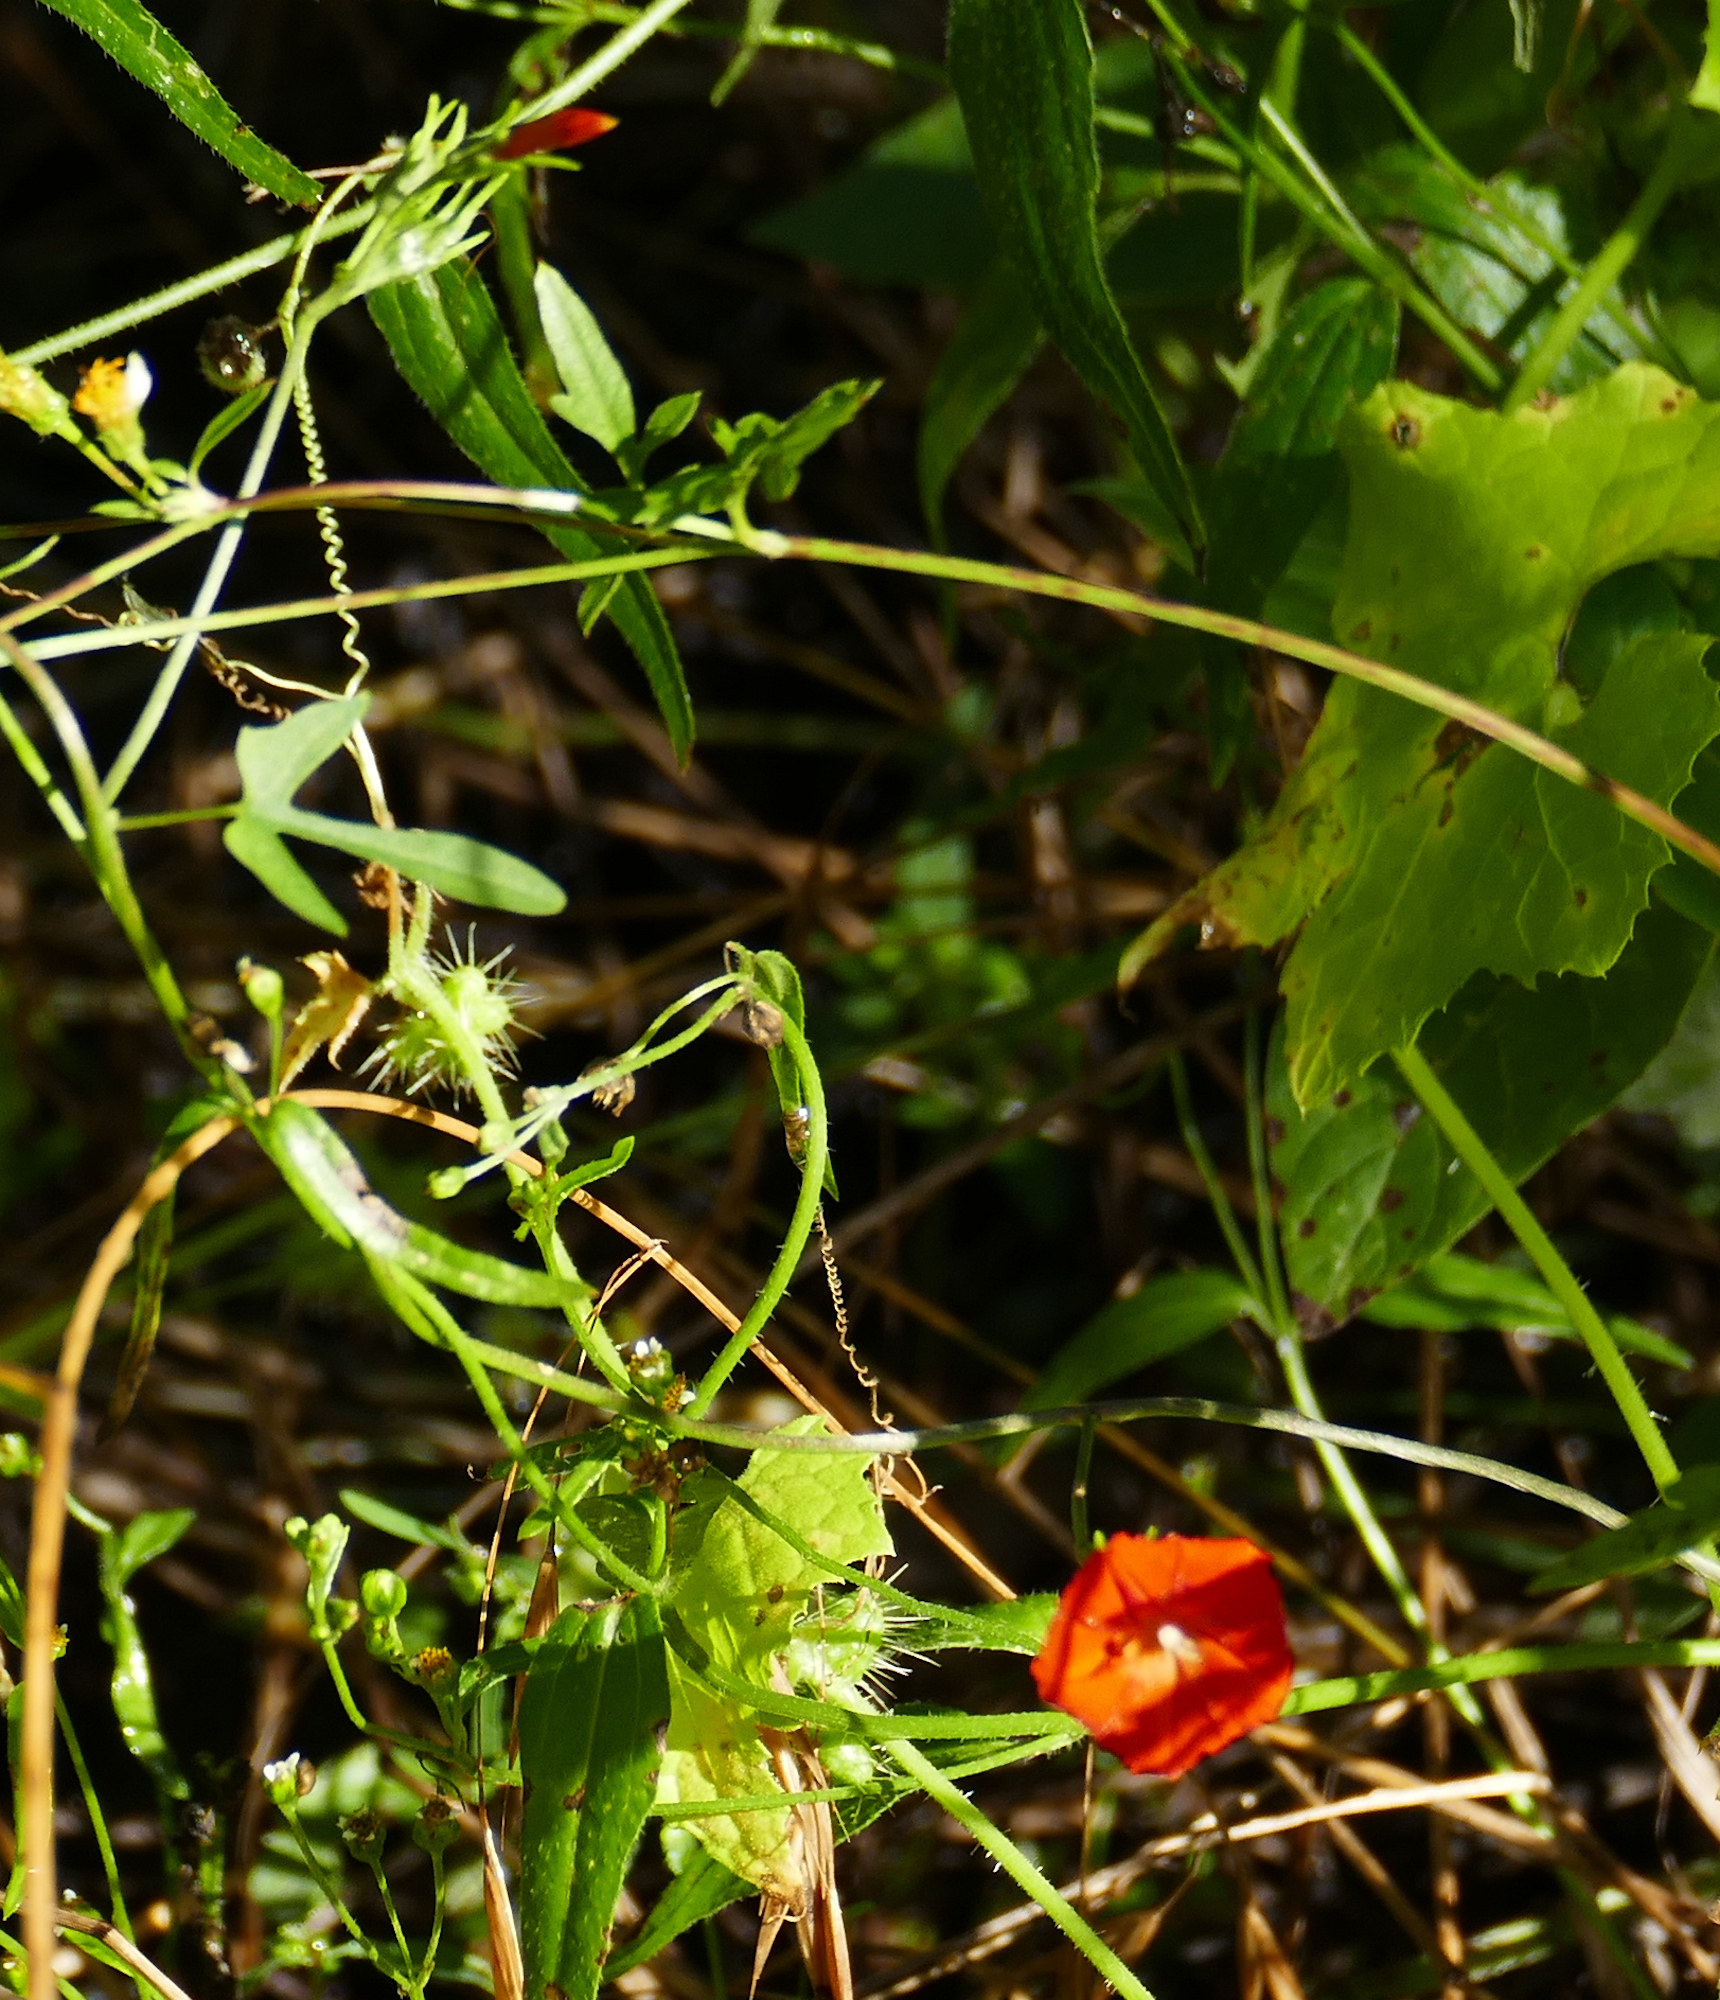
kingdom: Plantae
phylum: Tracheophyta
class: Magnoliopsida
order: Solanales
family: Convolvulaceae
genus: Ipomoea
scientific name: Ipomoea cristulata
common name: Trans-pecos morning-glory
